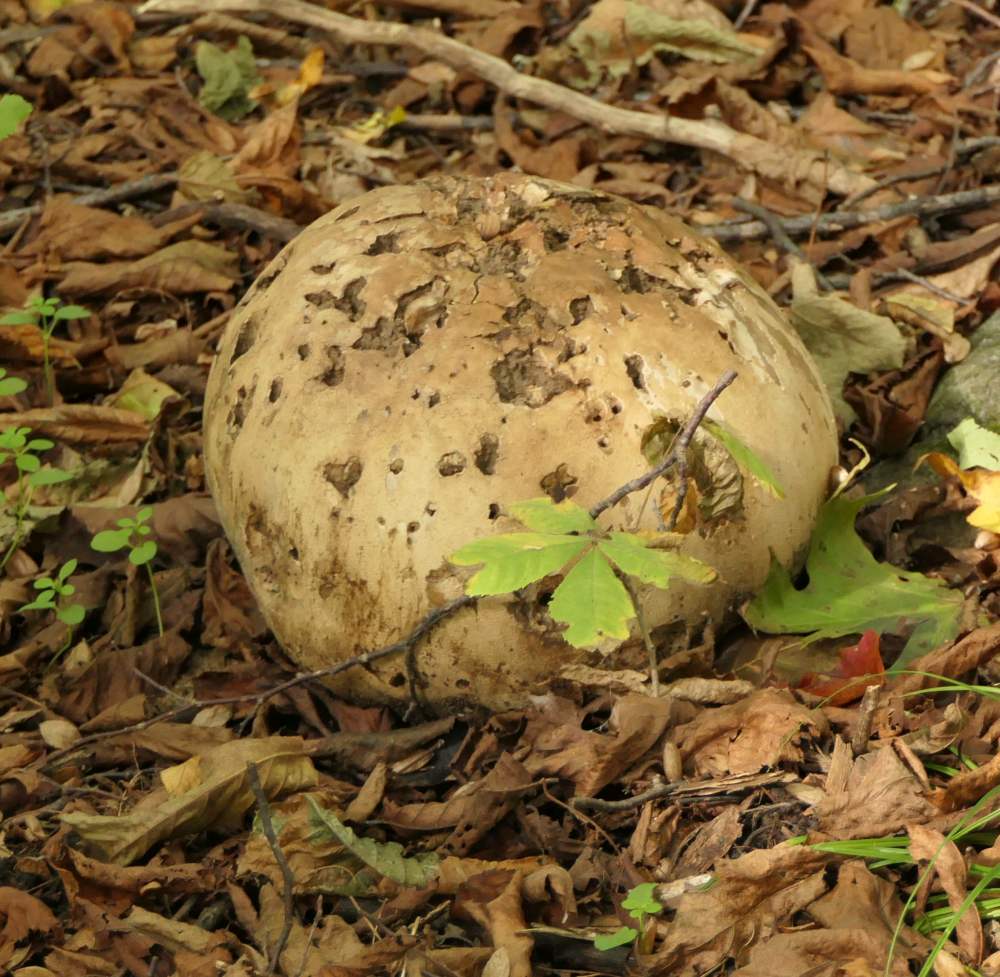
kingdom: Fungi
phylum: Basidiomycota
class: Agaricomycetes
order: Agaricales
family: Lycoperdaceae
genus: Calvatia
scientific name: Calvatia gigantea
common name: Giant puffball
